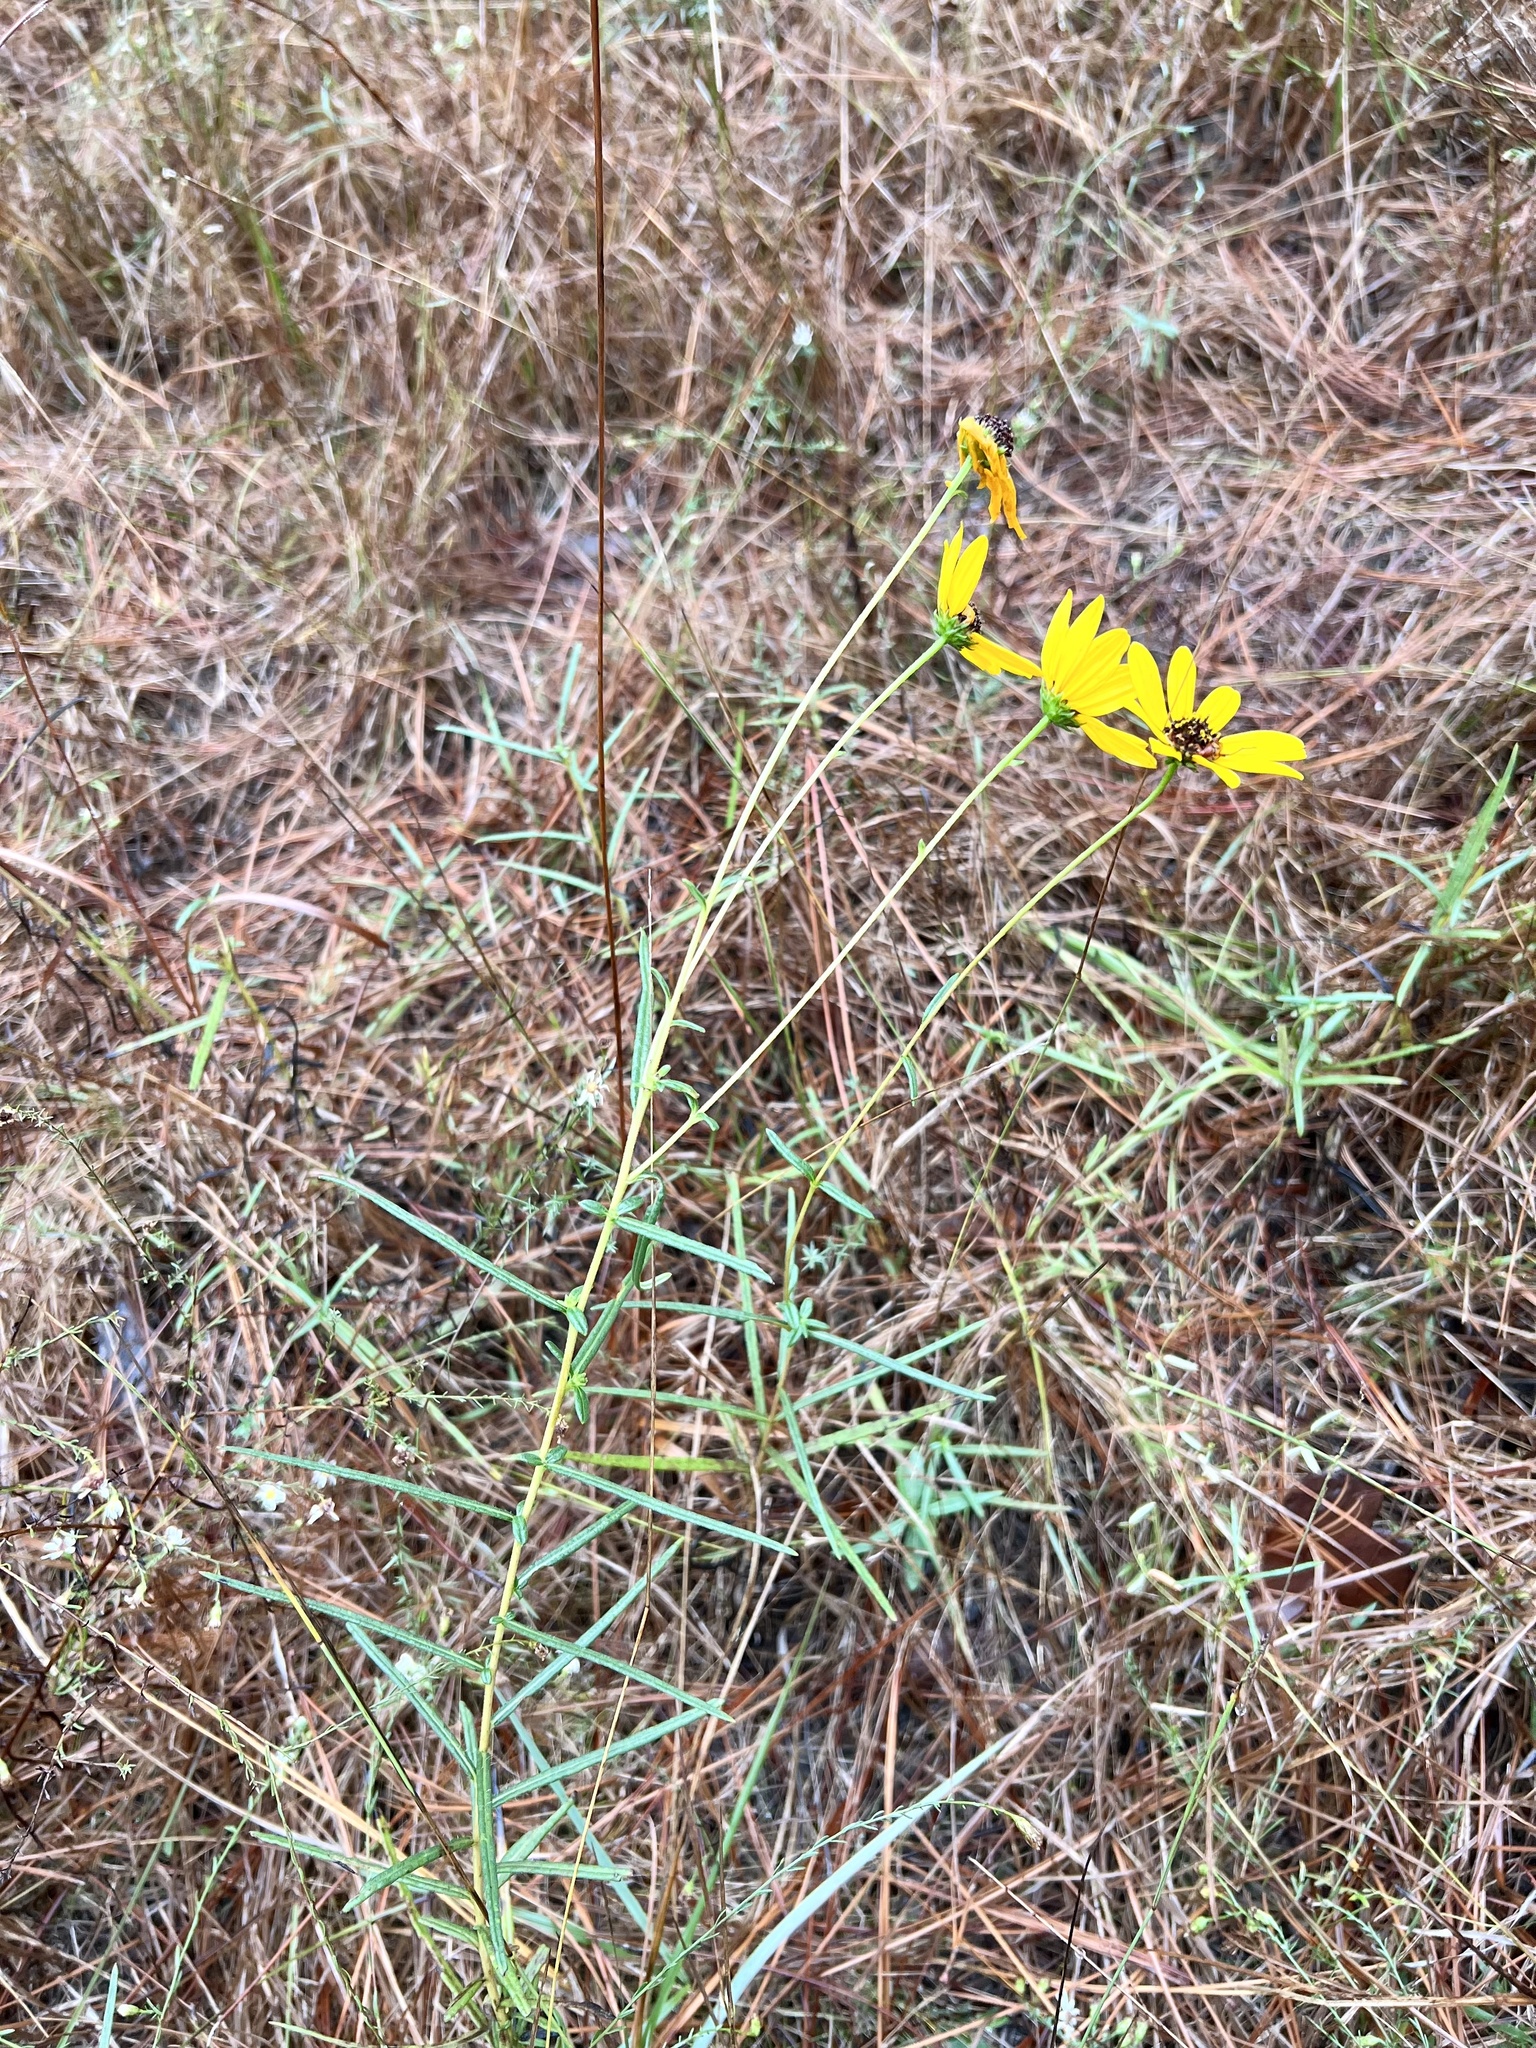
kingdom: Plantae
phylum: Tracheophyta
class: Magnoliopsida
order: Asterales
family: Asteraceae
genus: Helianthus
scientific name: Helianthus angustifolius
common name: Swamp sunflower
